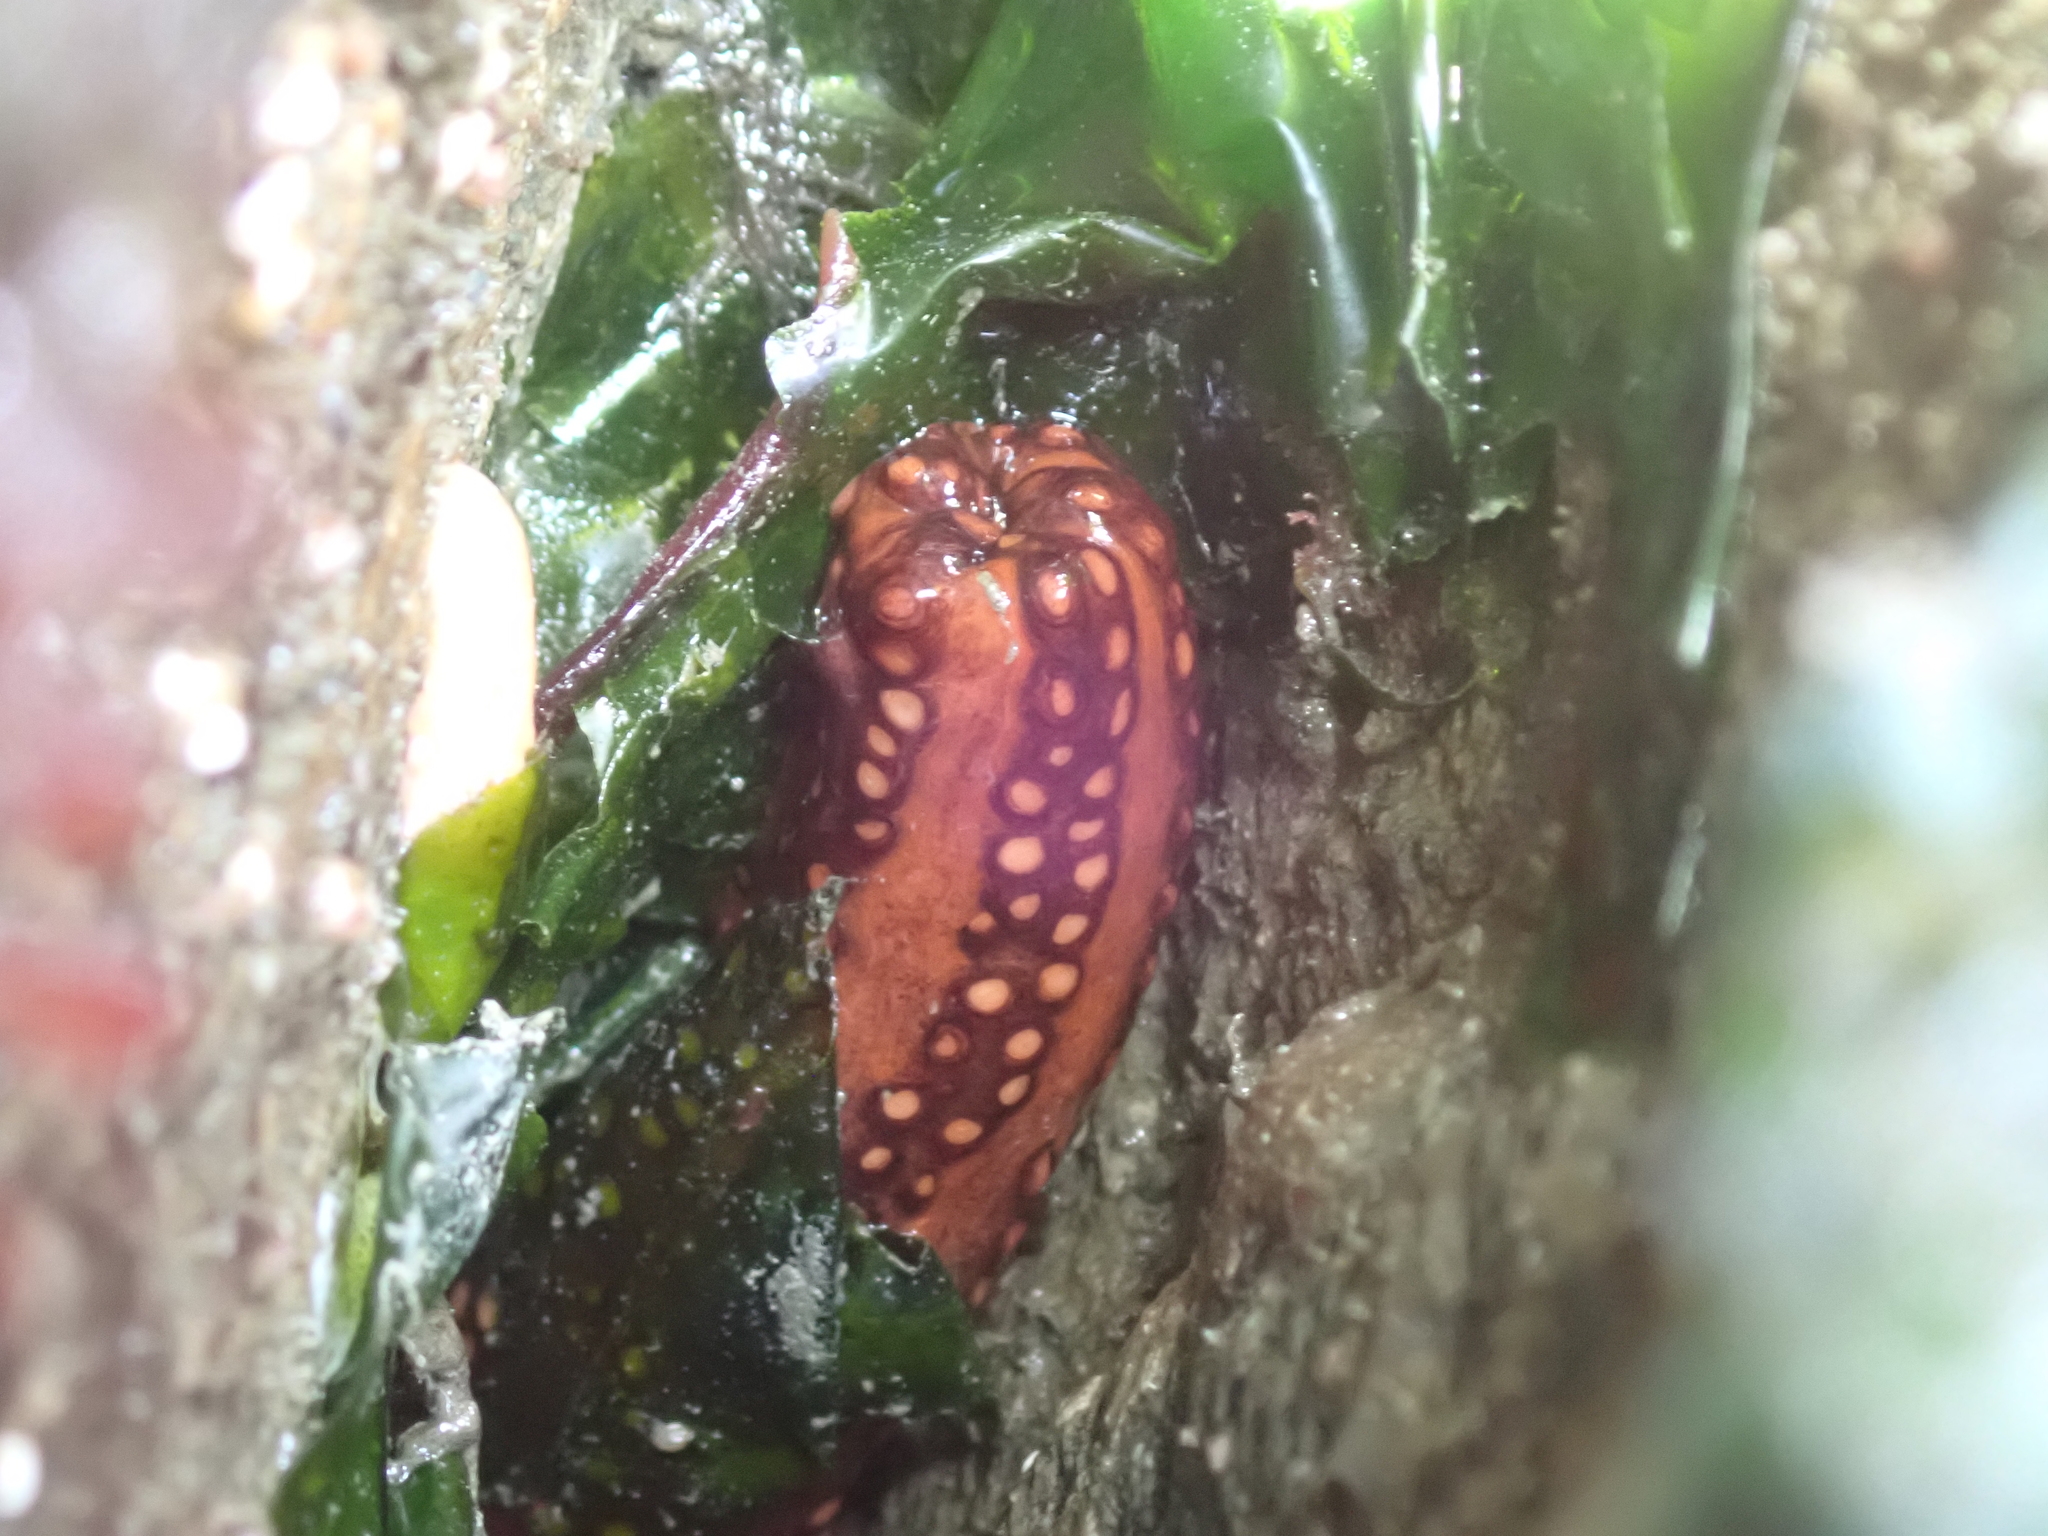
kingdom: Animalia
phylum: Echinodermata
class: Holothuroidea
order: Dendrochirotida
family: Cucumariidae
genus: Cucumaria
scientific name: Cucumaria miniata
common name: Orange sea cucumber
